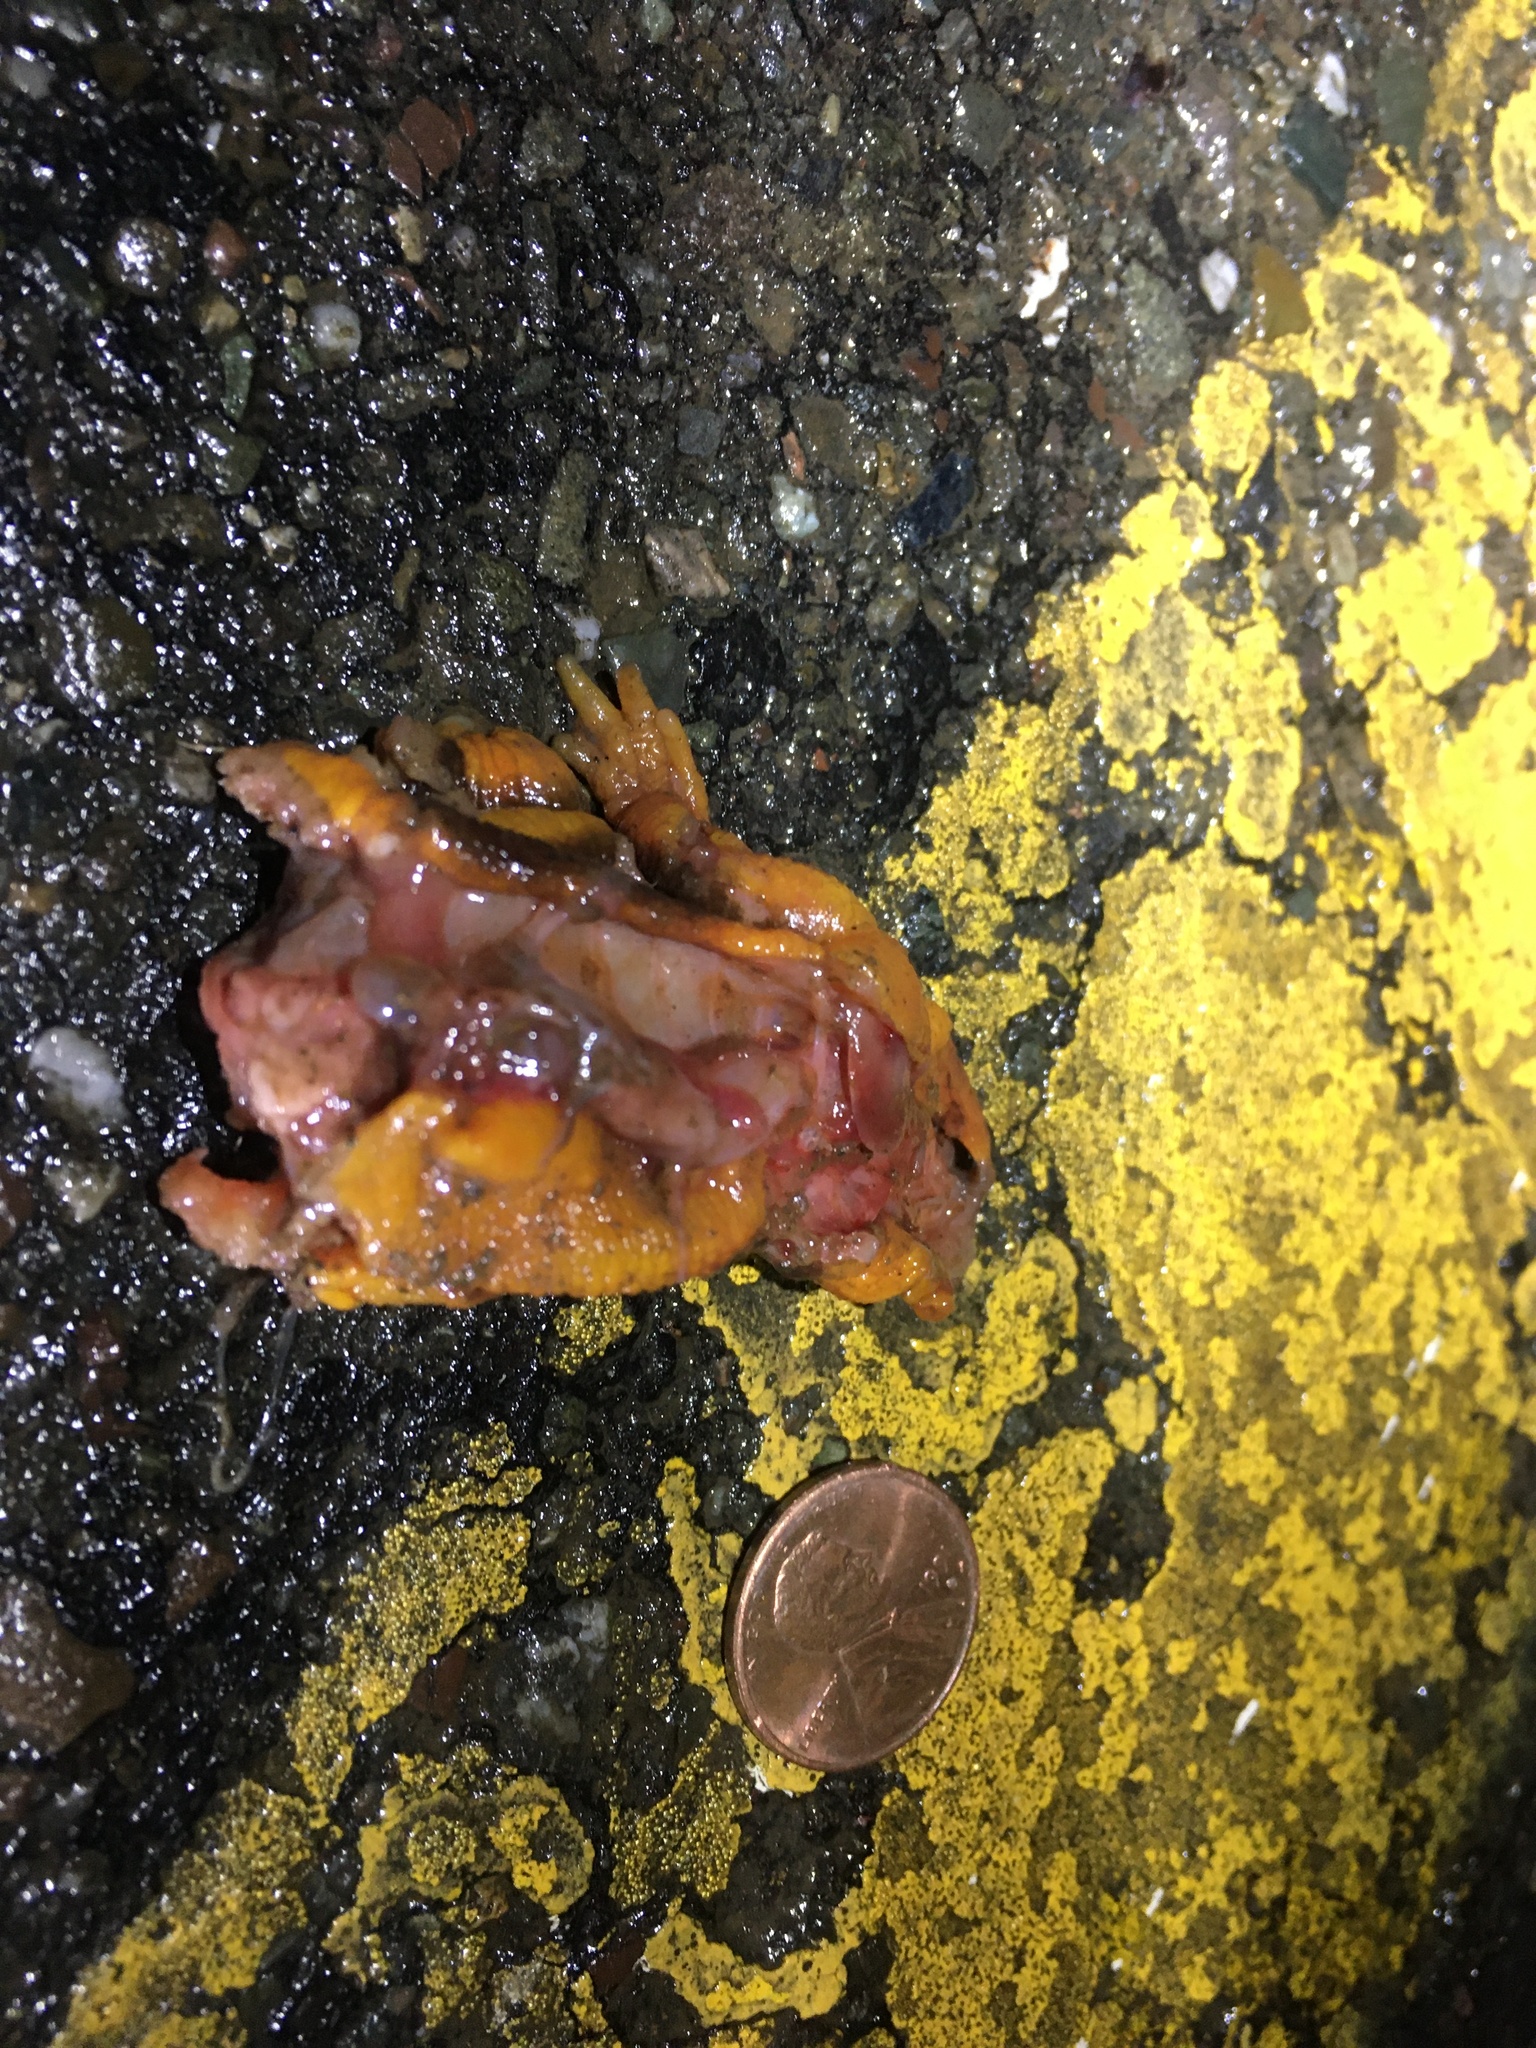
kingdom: Animalia
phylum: Chordata
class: Amphibia
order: Caudata
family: Salamandridae
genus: Taricha
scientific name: Taricha
